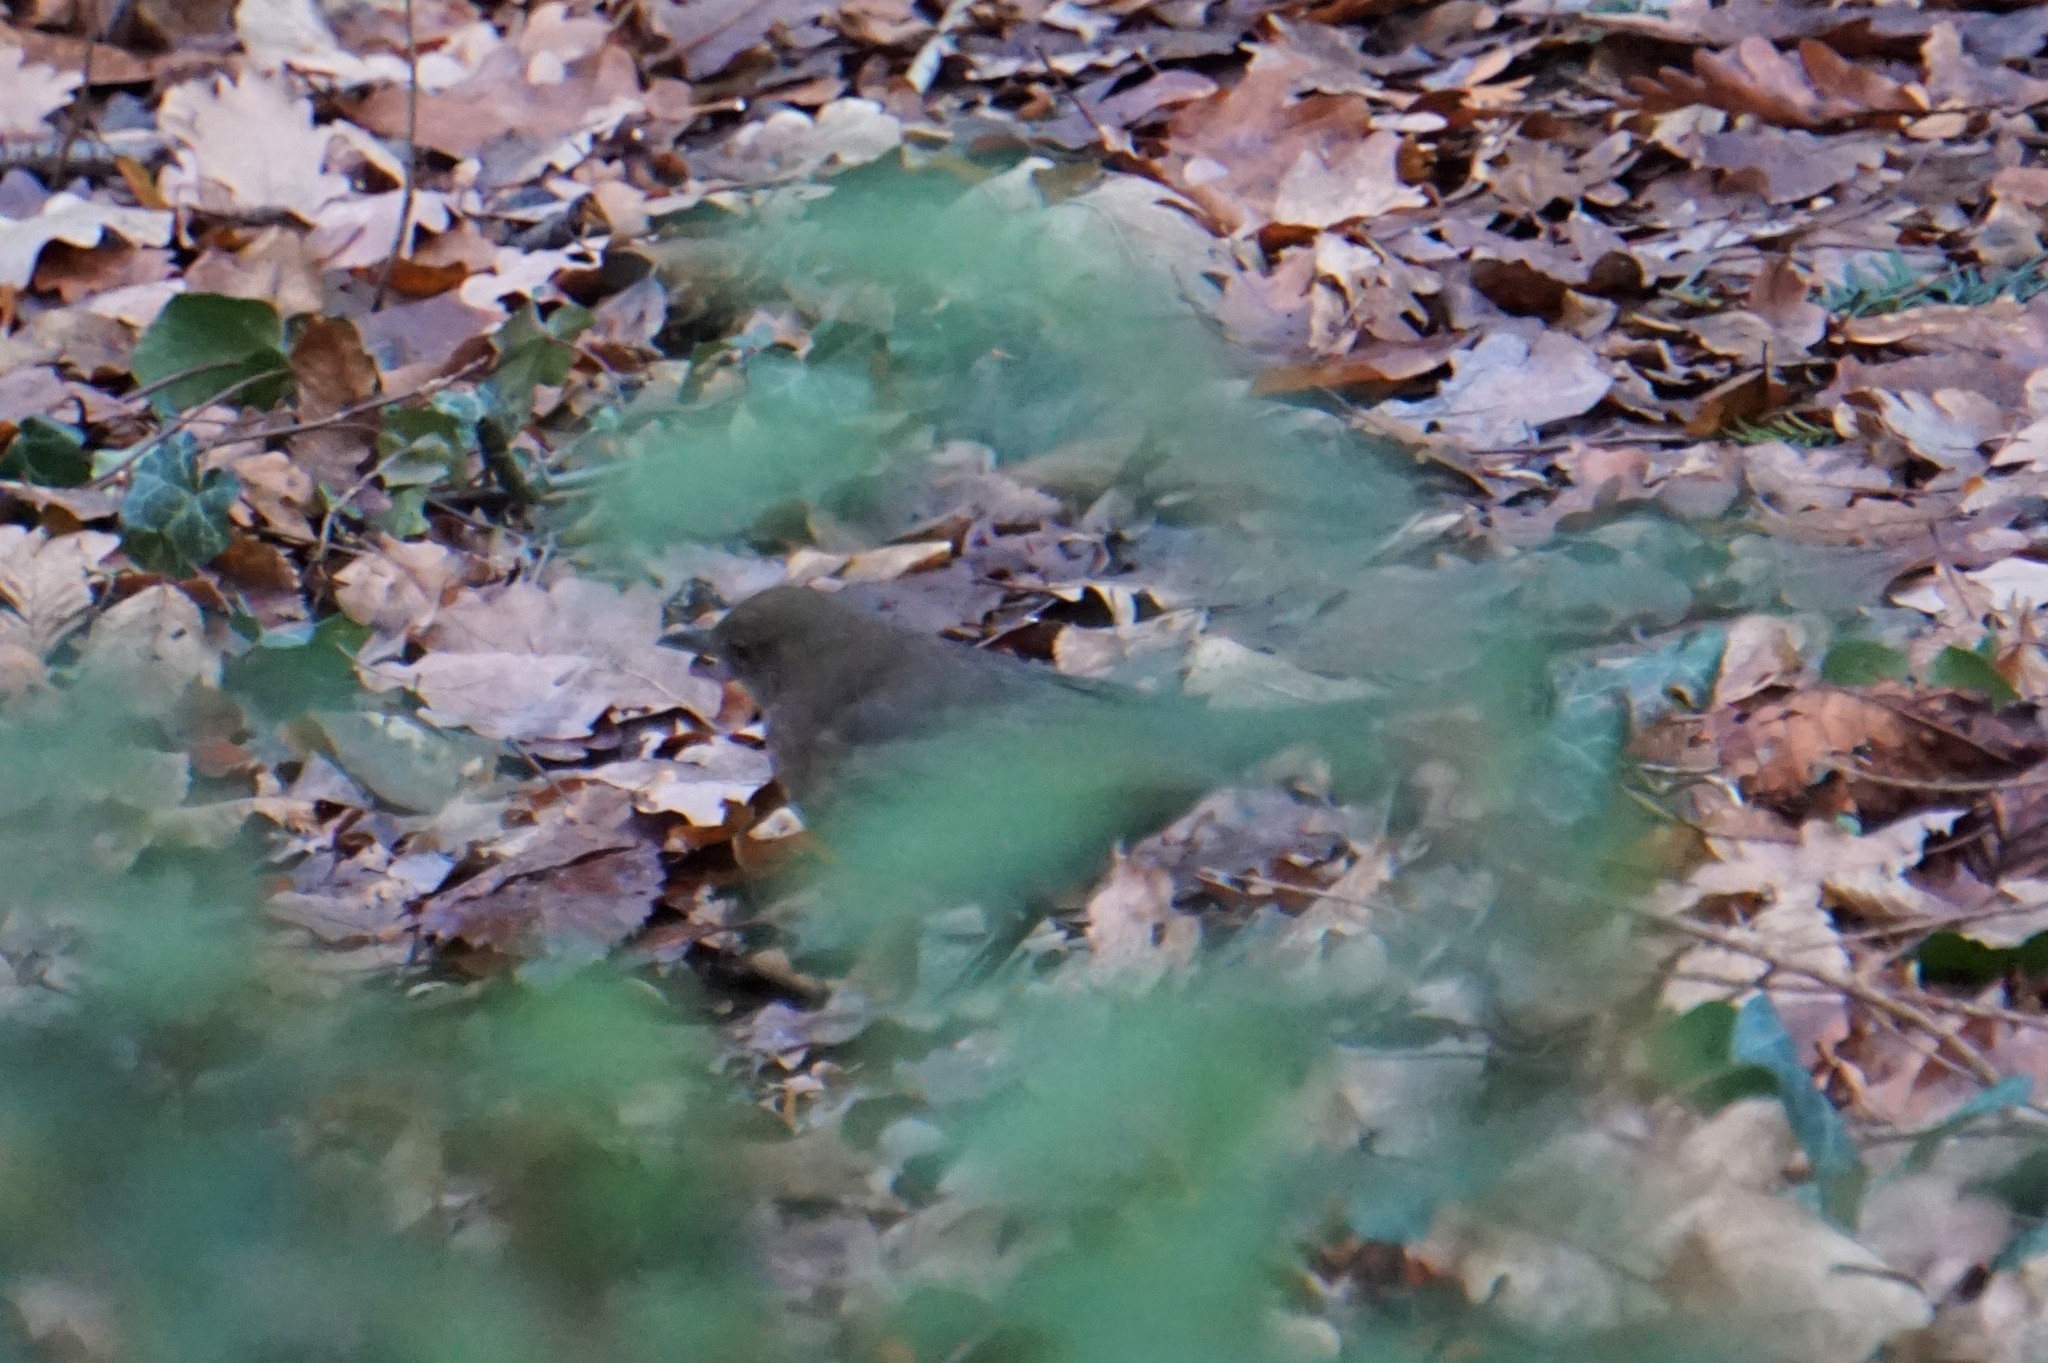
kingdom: Animalia
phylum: Chordata
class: Aves
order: Passeriformes
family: Turdidae
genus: Turdus
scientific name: Turdus merula
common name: Common blackbird
